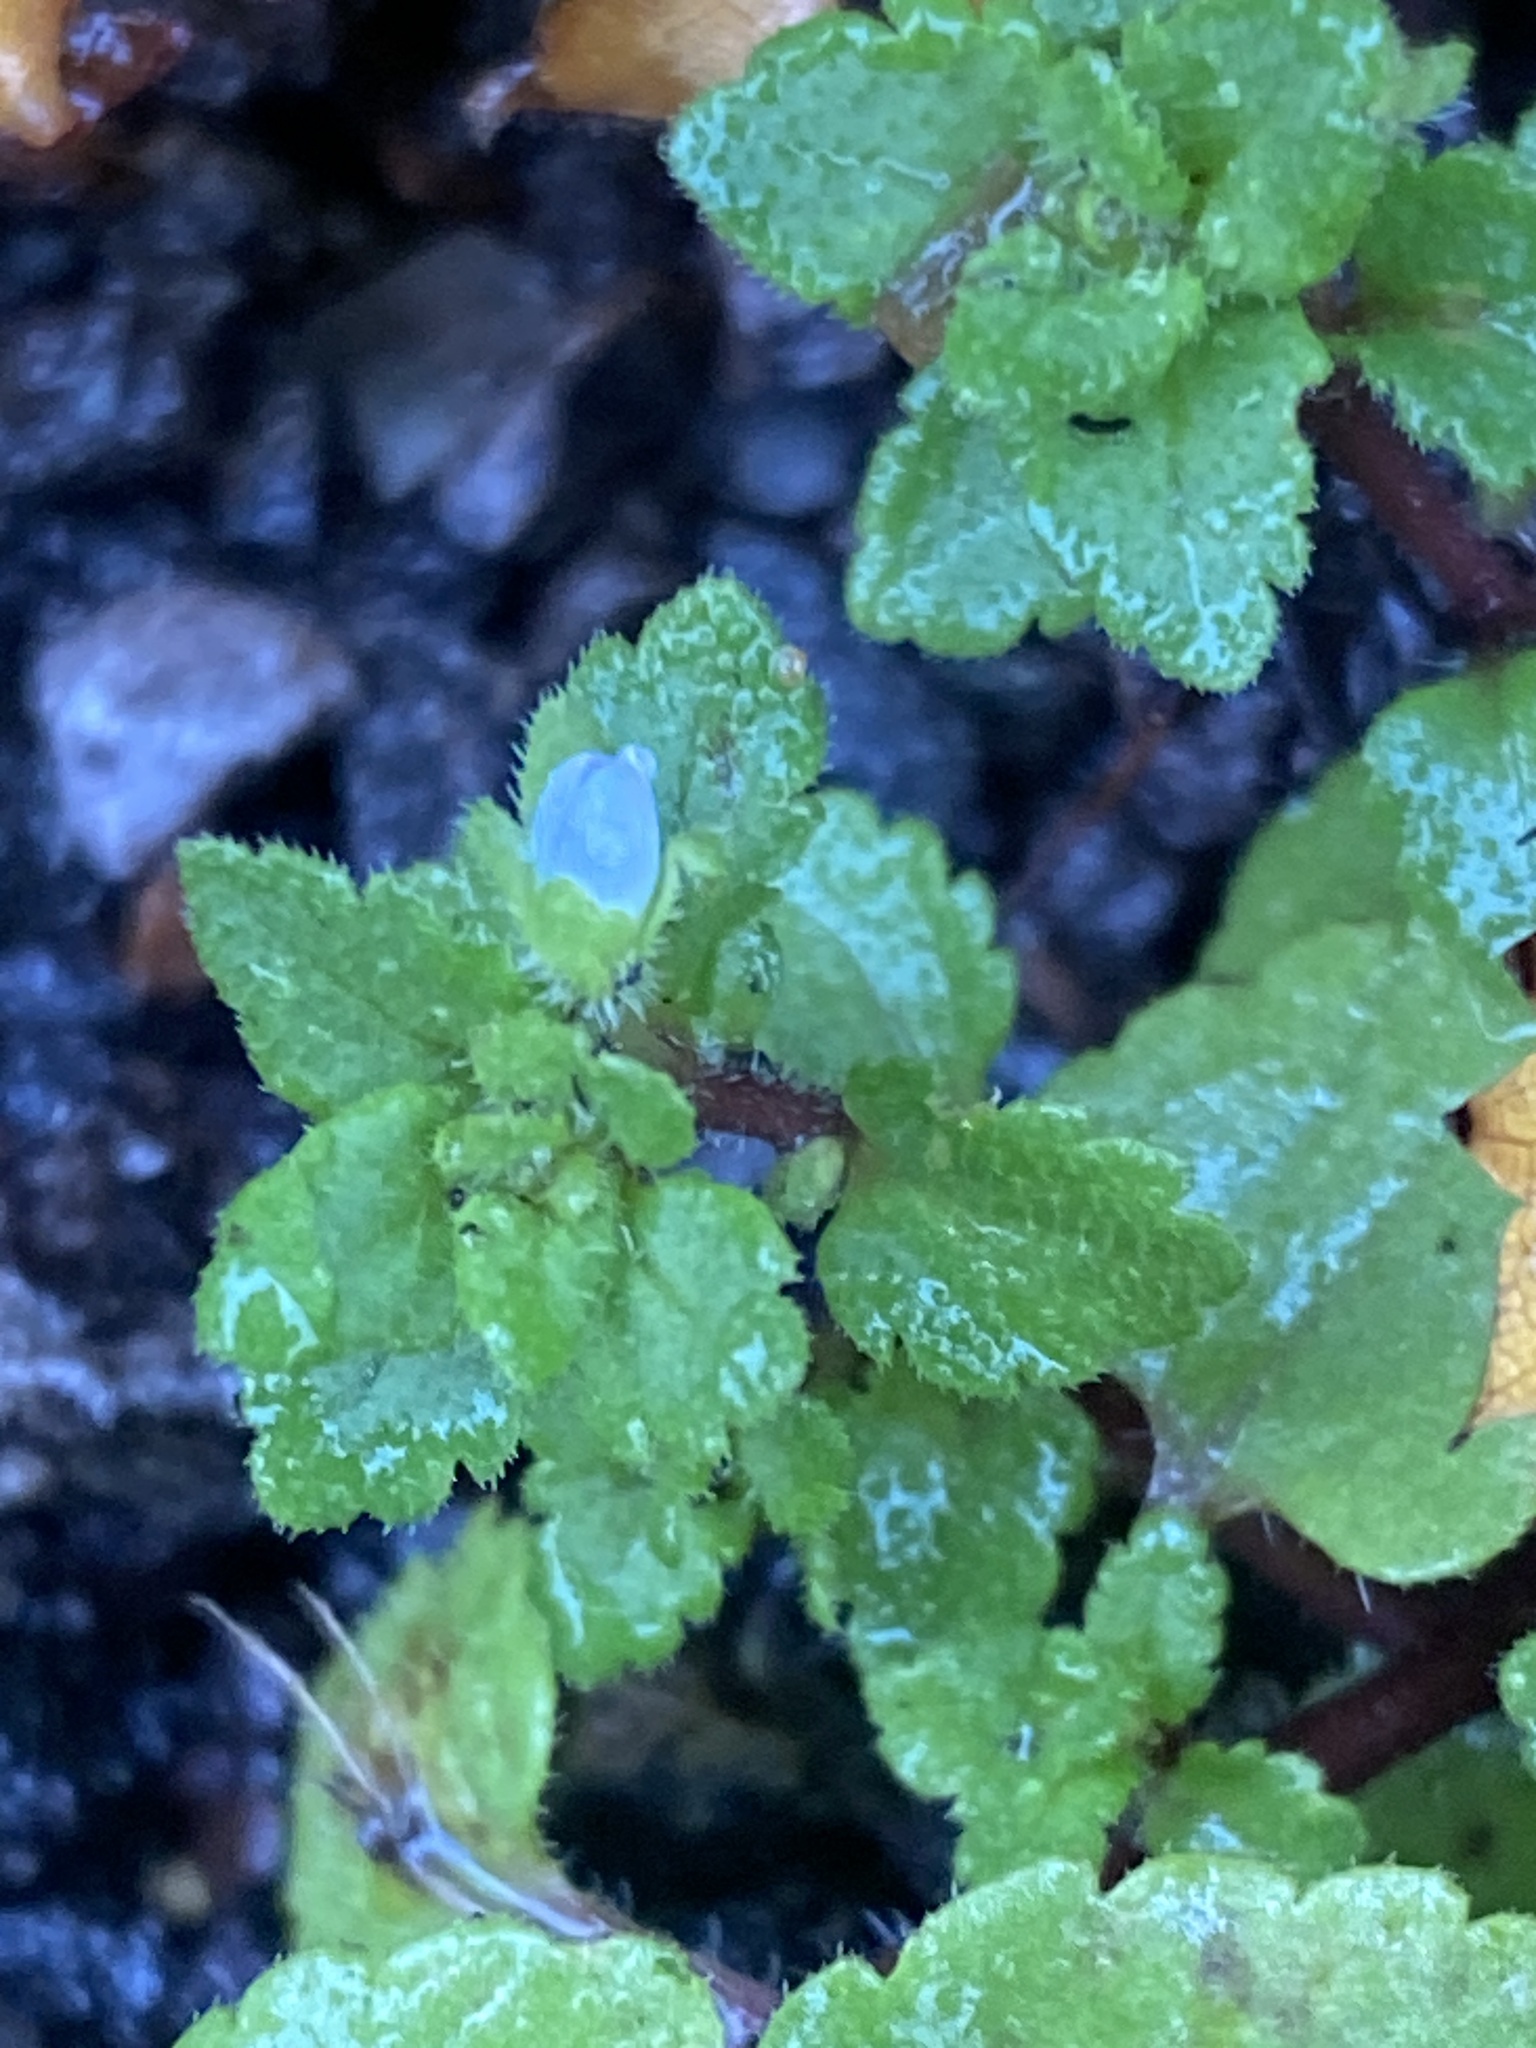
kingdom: Plantae
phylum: Tracheophyta
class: Magnoliopsida
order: Lamiales
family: Plantaginaceae
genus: Veronica
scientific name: Veronica agrestis
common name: Green field-speedwell
